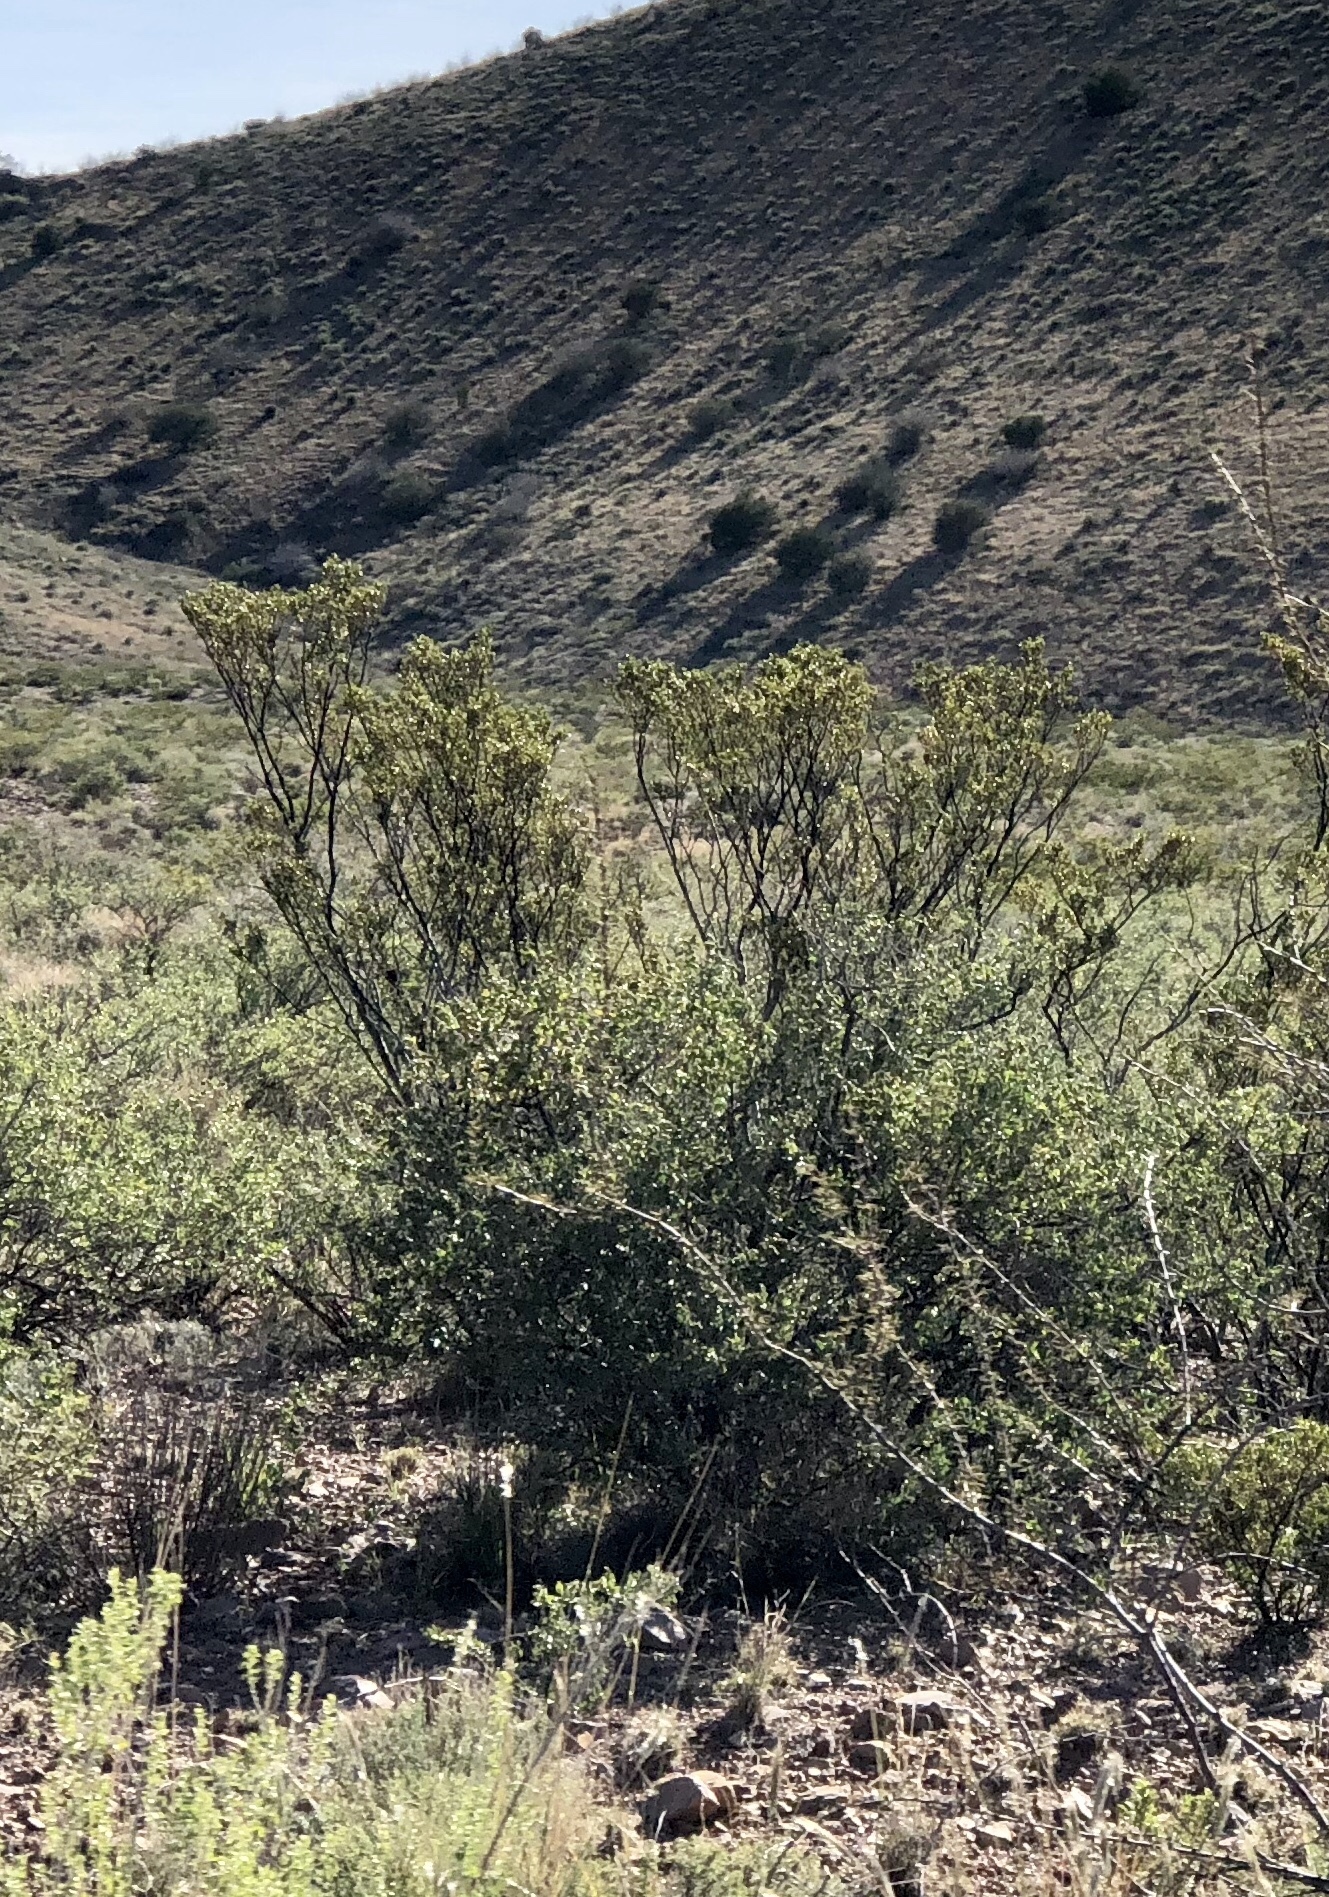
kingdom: Plantae
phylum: Tracheophyta
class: Magnoliopsida
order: Zygophyllales
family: Zygophyllaceae
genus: Larrea
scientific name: Larrea tridentata
